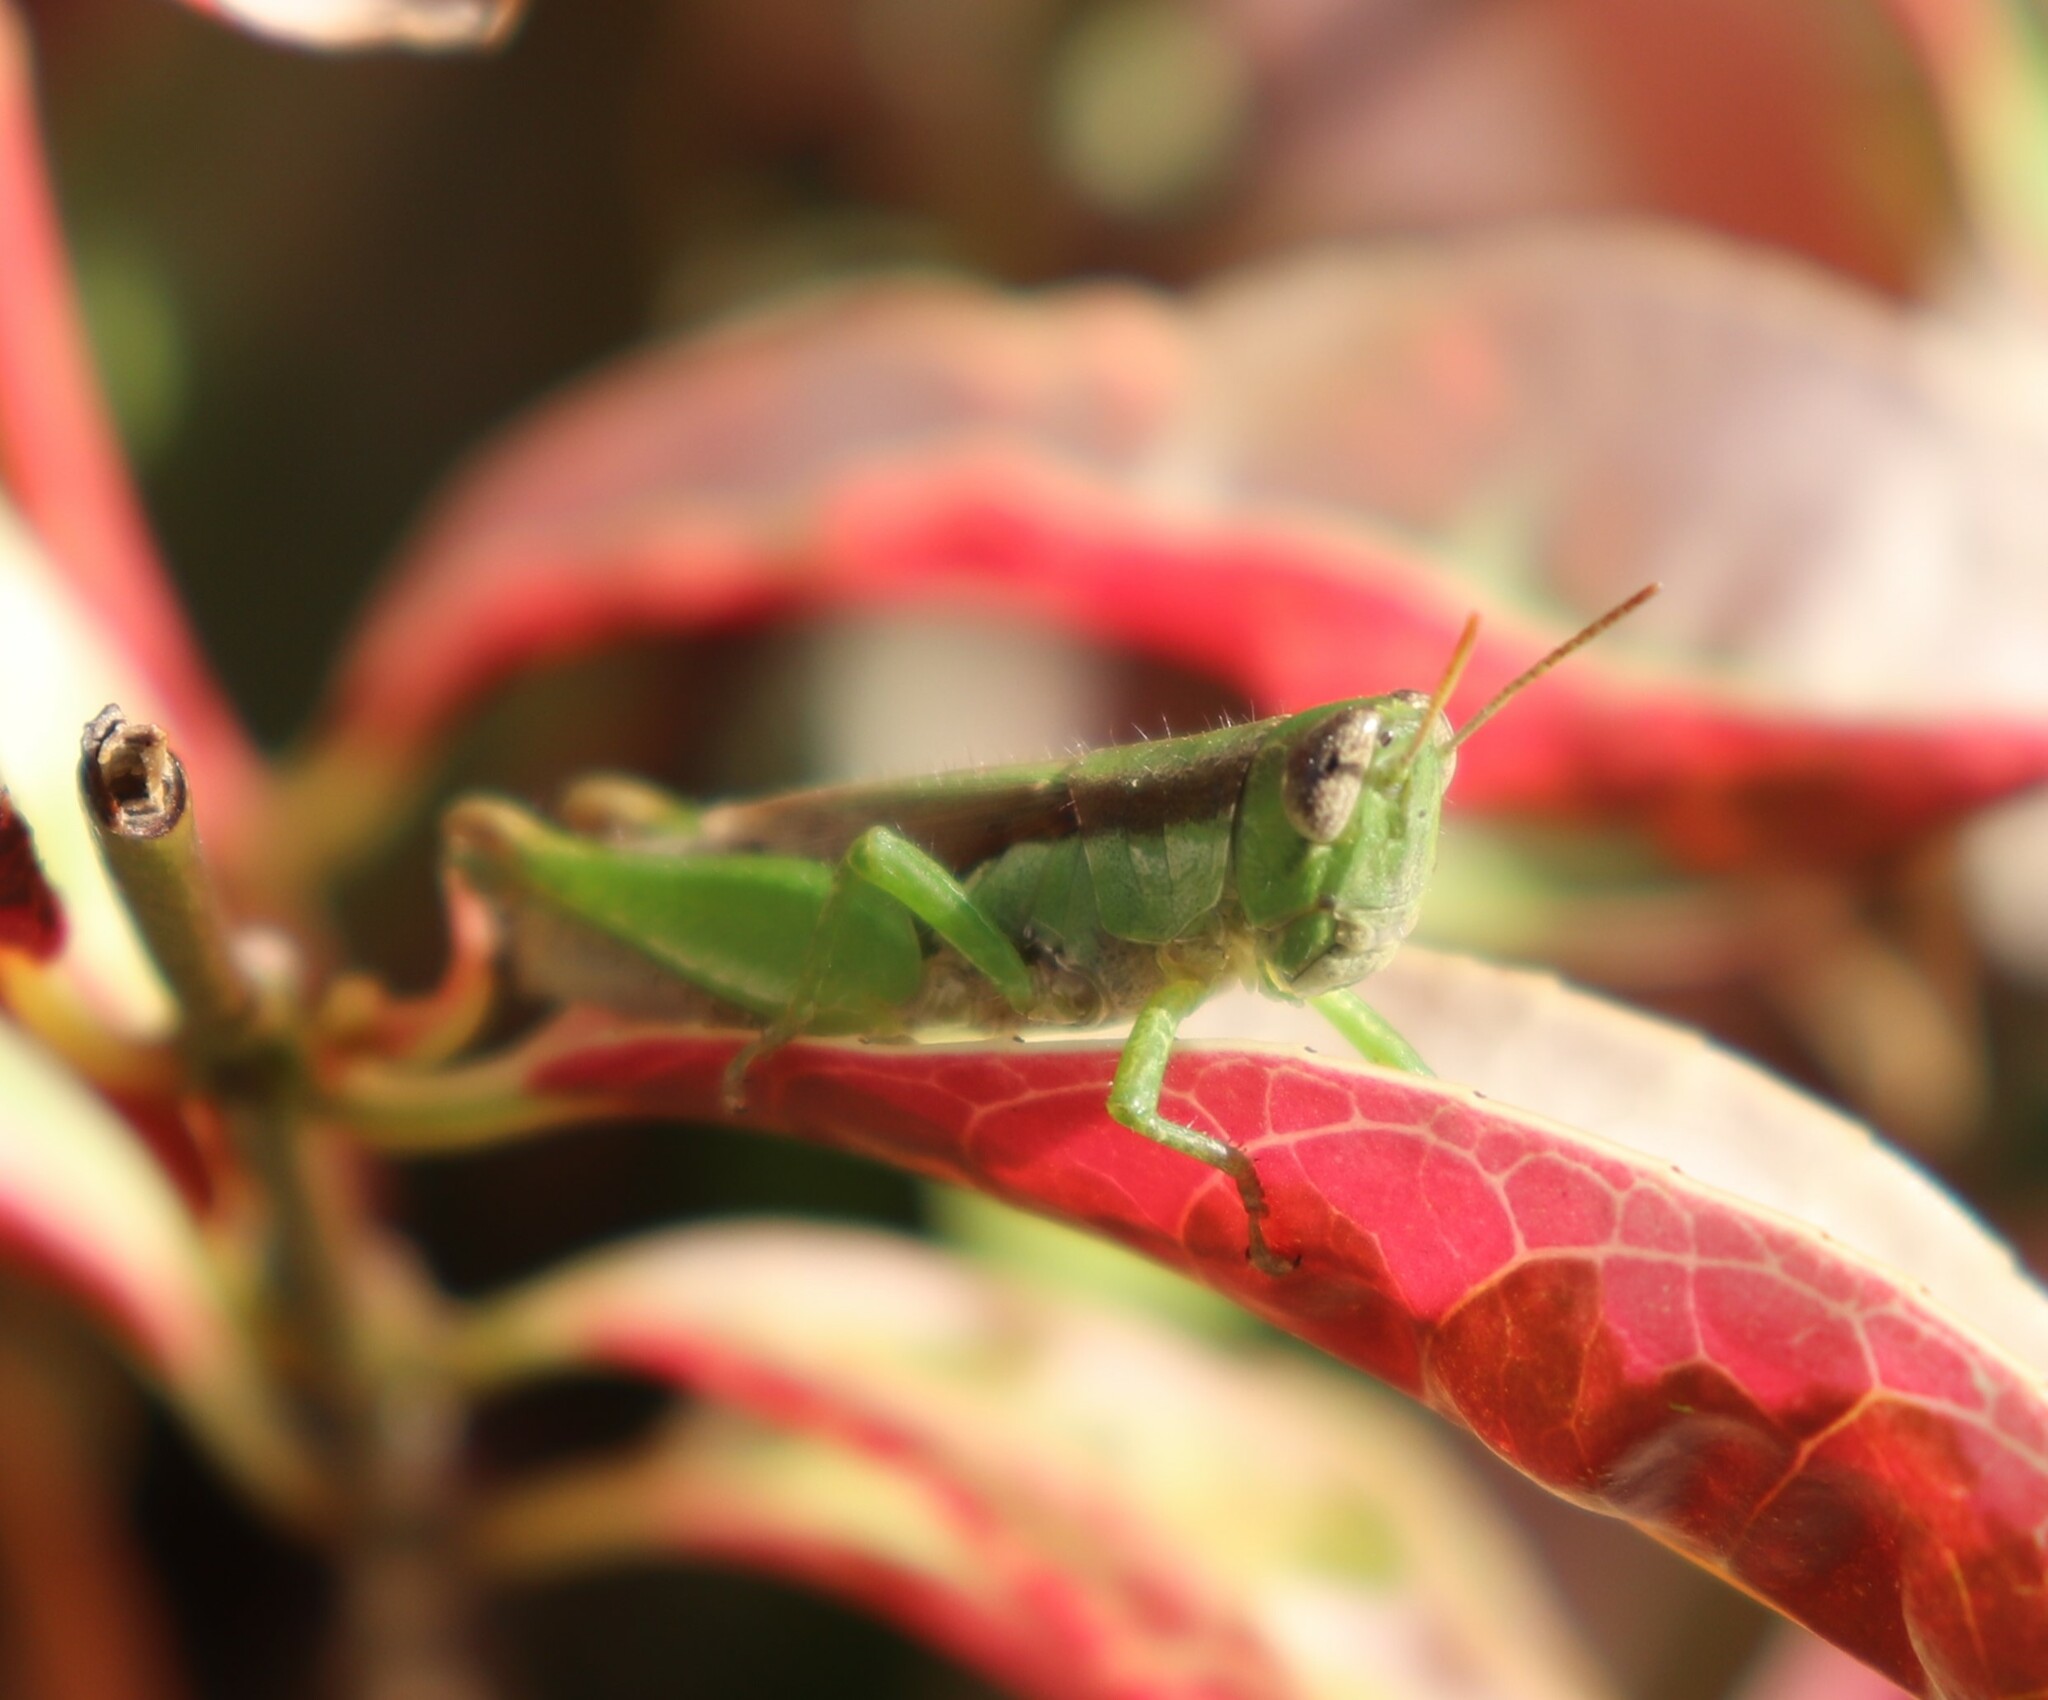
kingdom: Animalia
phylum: Arthropoda
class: Insecta
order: Orthoptera
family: Acrididae
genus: Pseudoxya
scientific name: Pseudoxya diminuta
